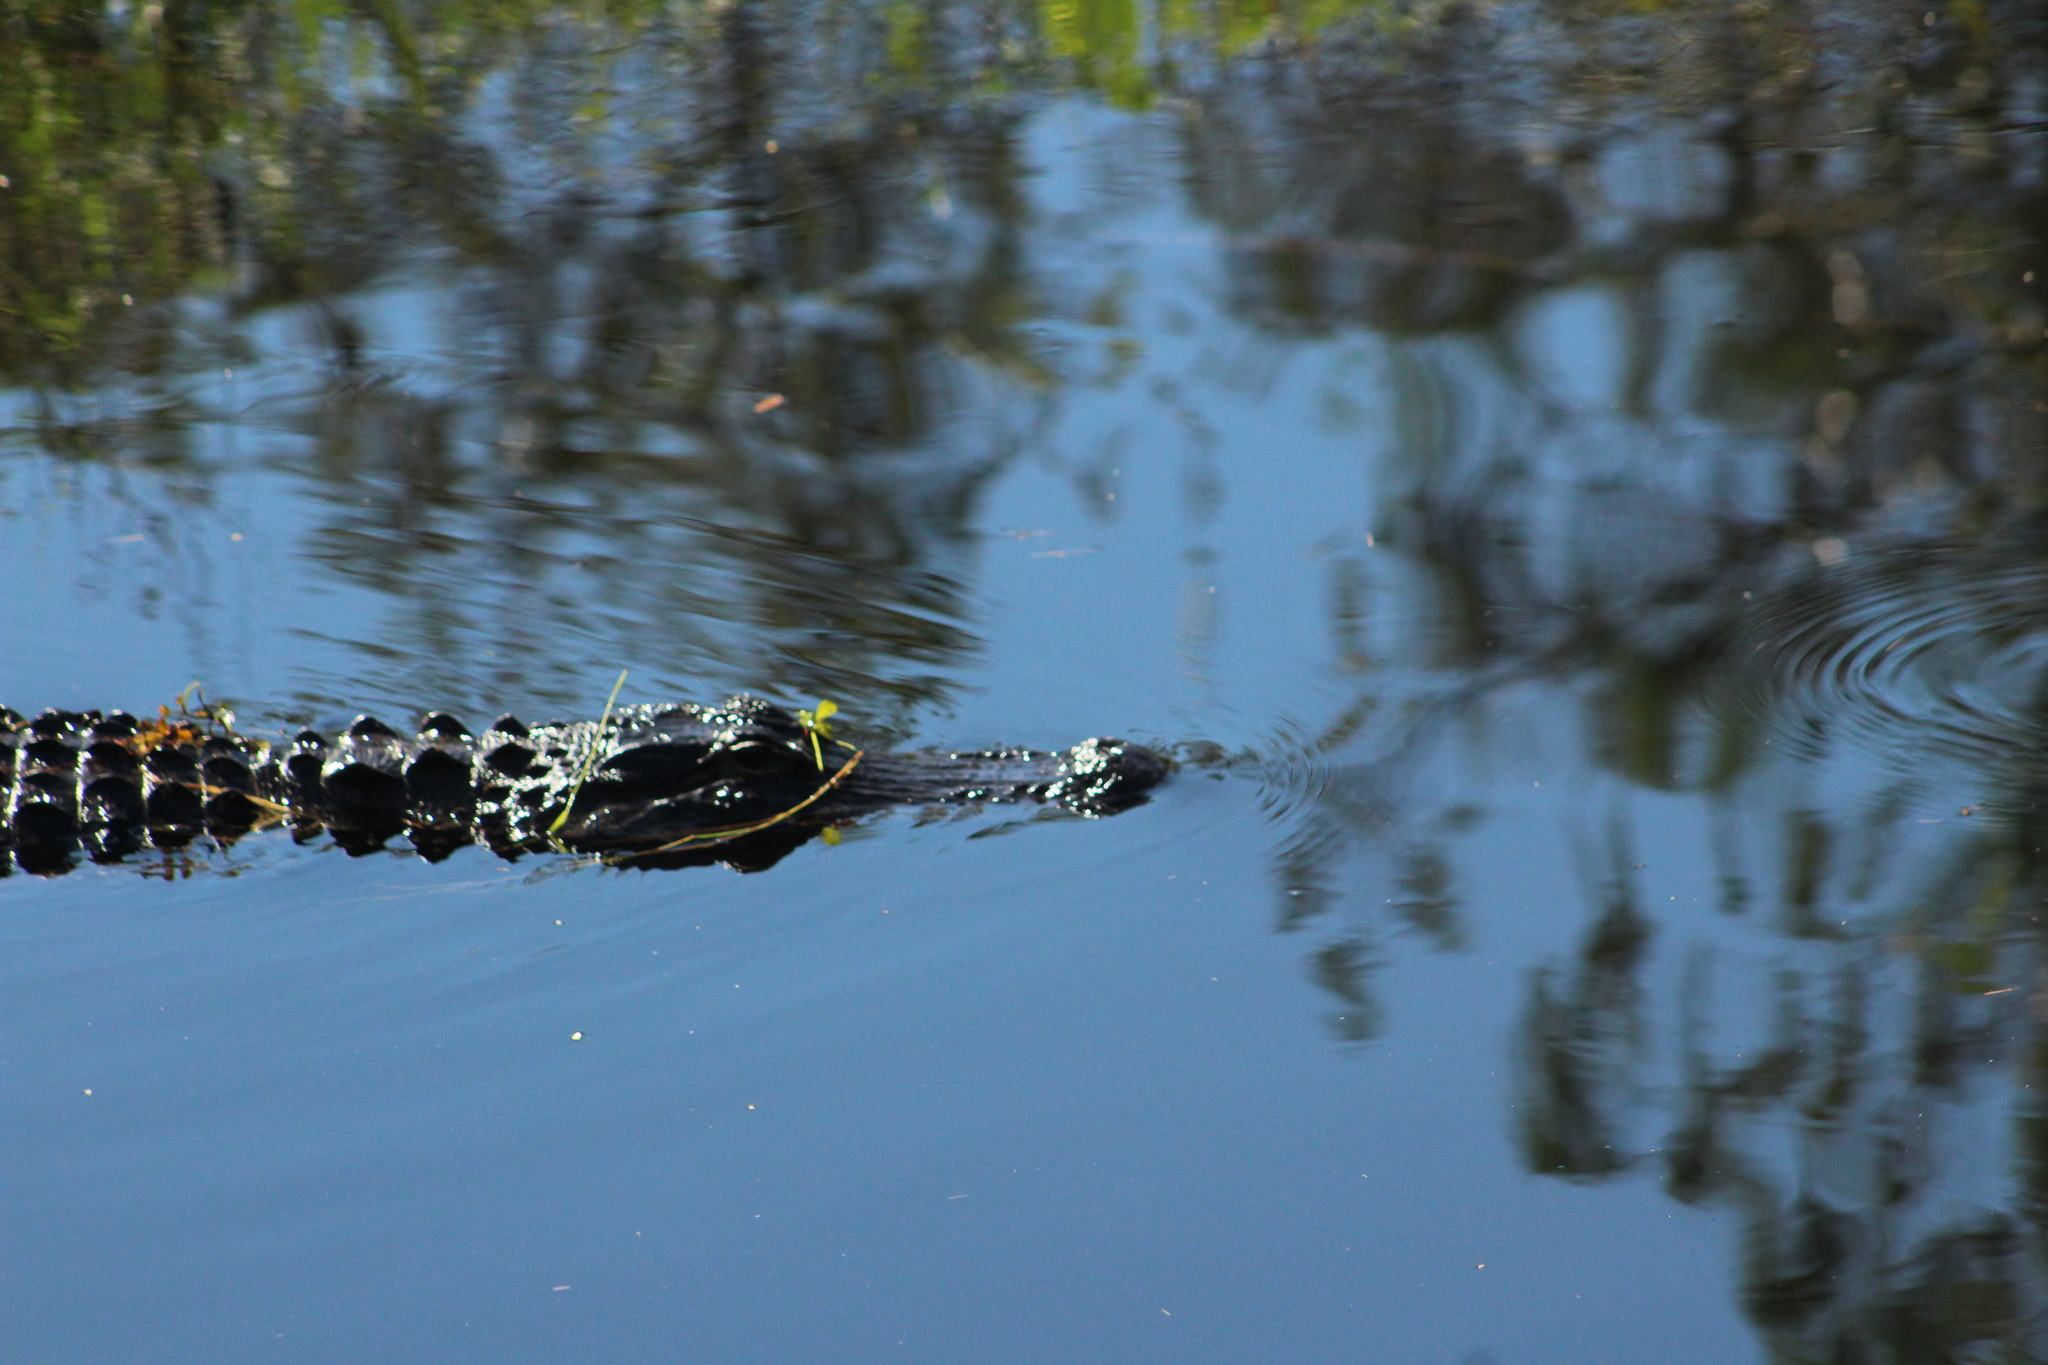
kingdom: Animalia
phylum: Chordata
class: Crocodylia
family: Alligatoridae
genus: Alligator
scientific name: Alligator mississippiensis
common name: American alligator
